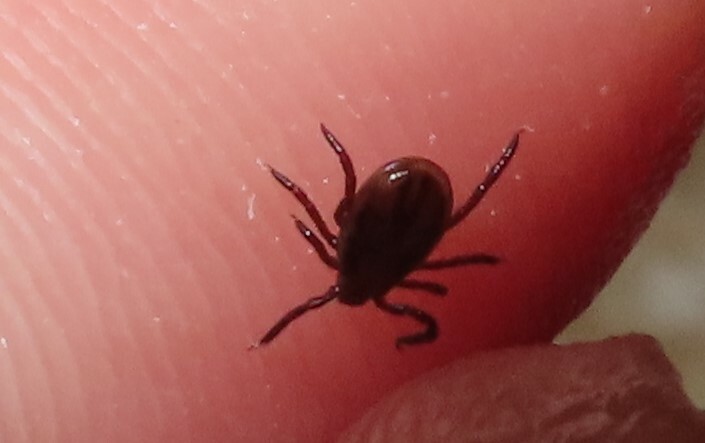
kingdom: Animalia
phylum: Arthropoda
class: Arachnida
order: Ixodida
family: Ixodidae
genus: Ixodes
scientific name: Ixodes scapularis
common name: Black legged tick
